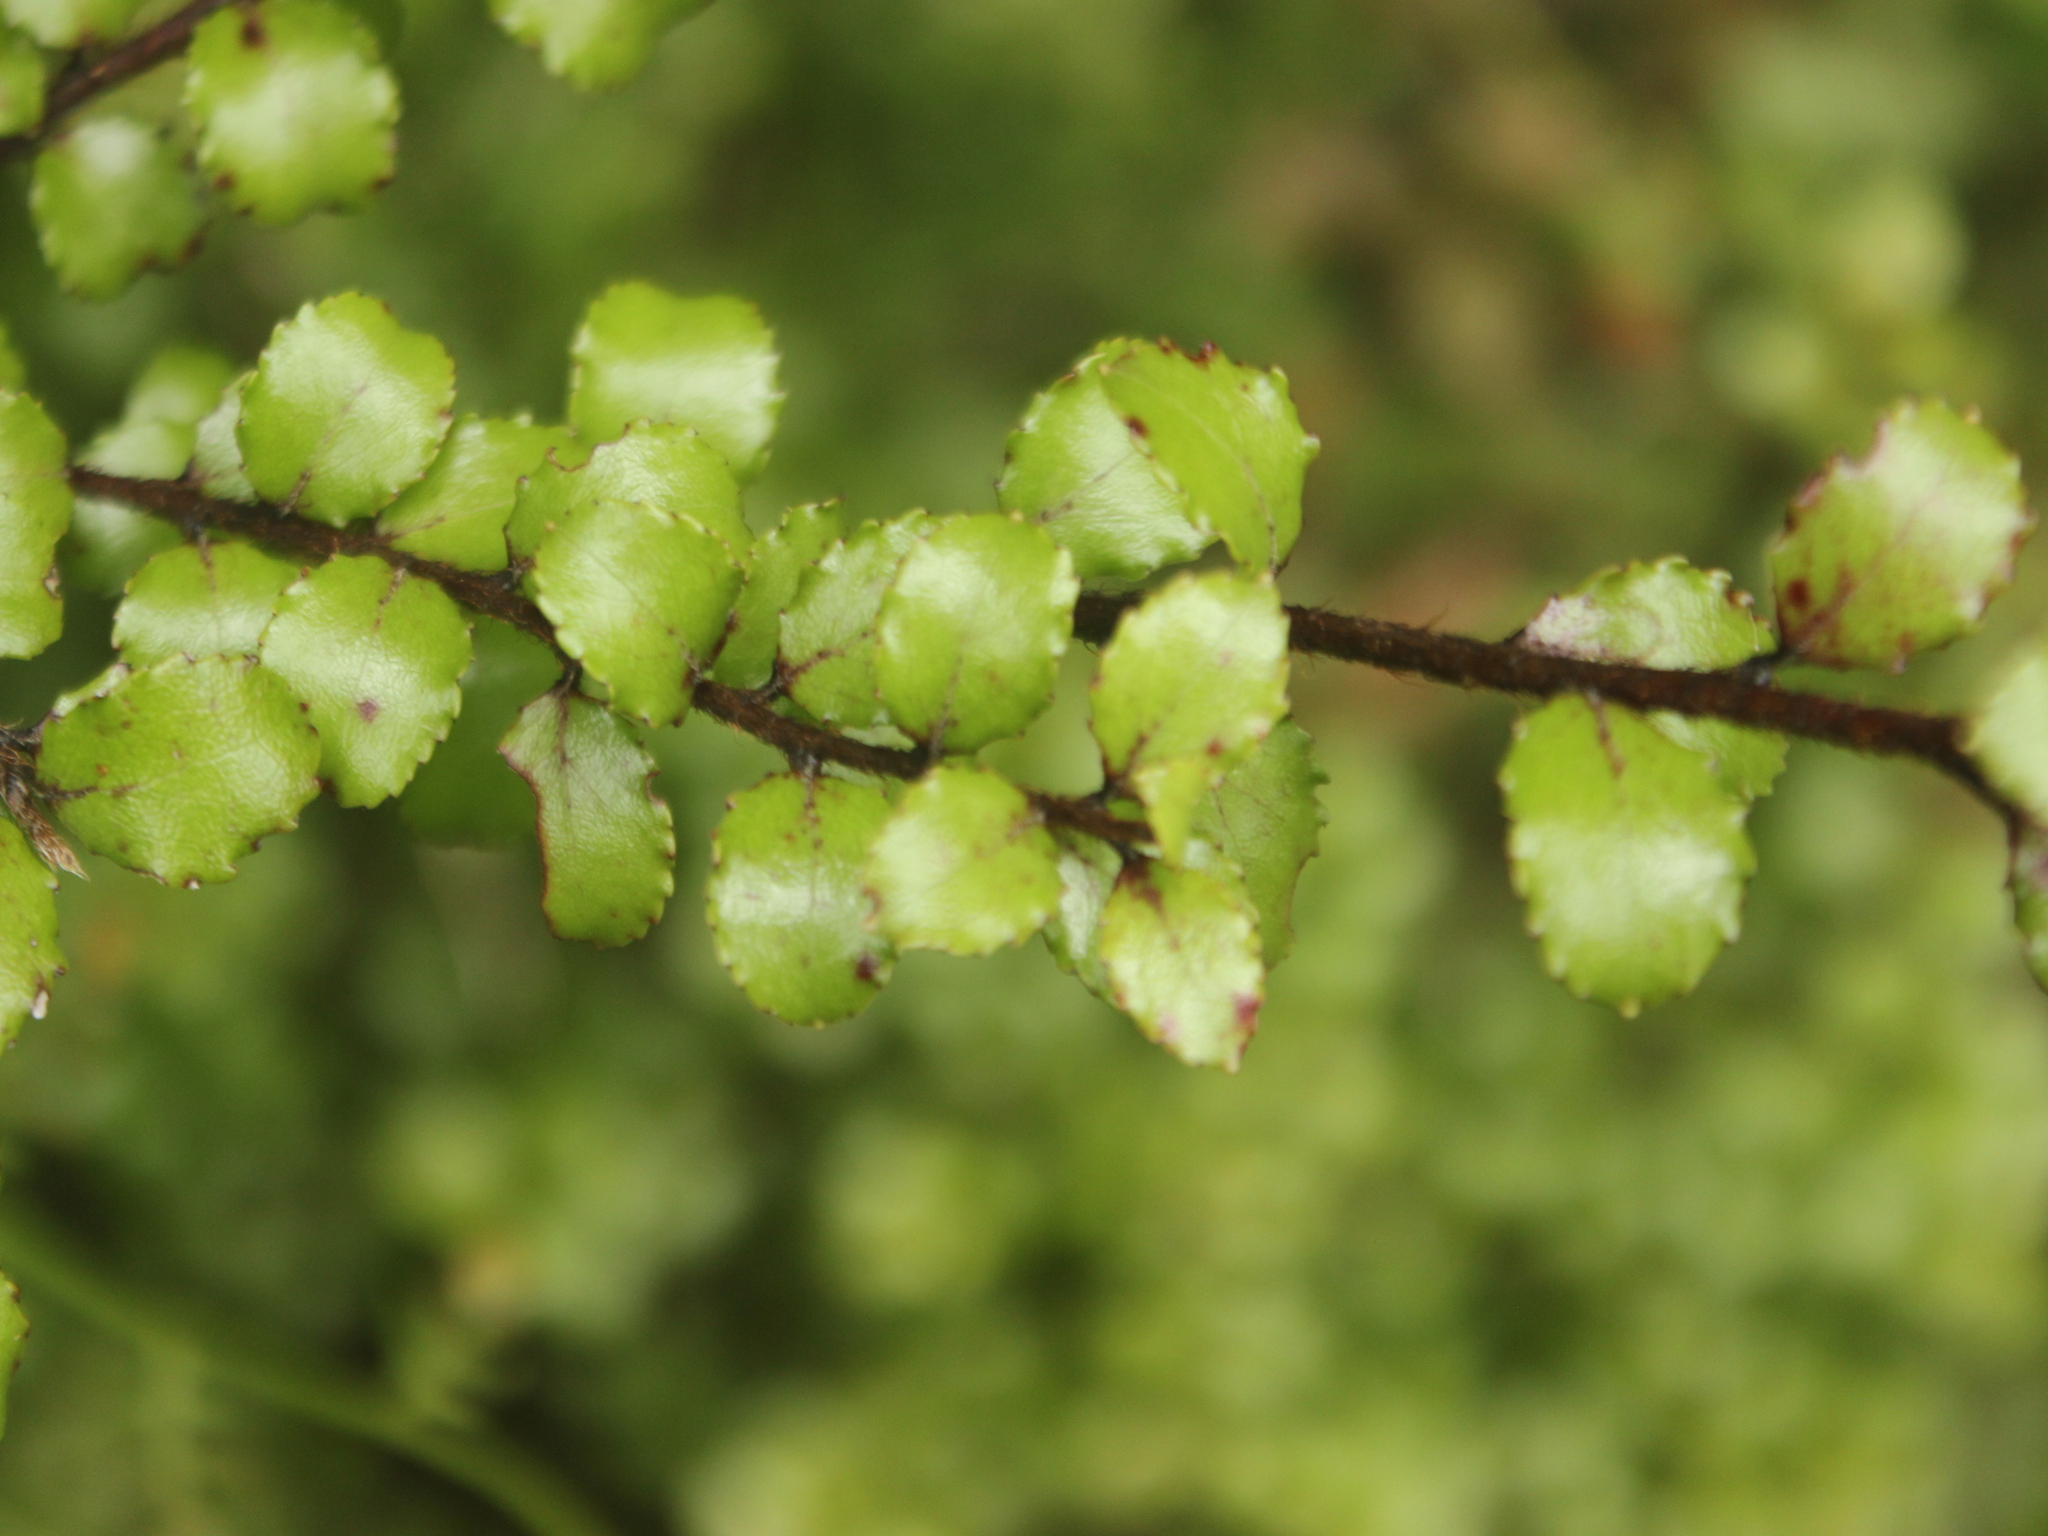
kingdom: Plantae
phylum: Tracheophyta
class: Magnoliopsida
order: Ericales
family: Ericaceae
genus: Gaultheria
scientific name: Gaultheria antipoda
